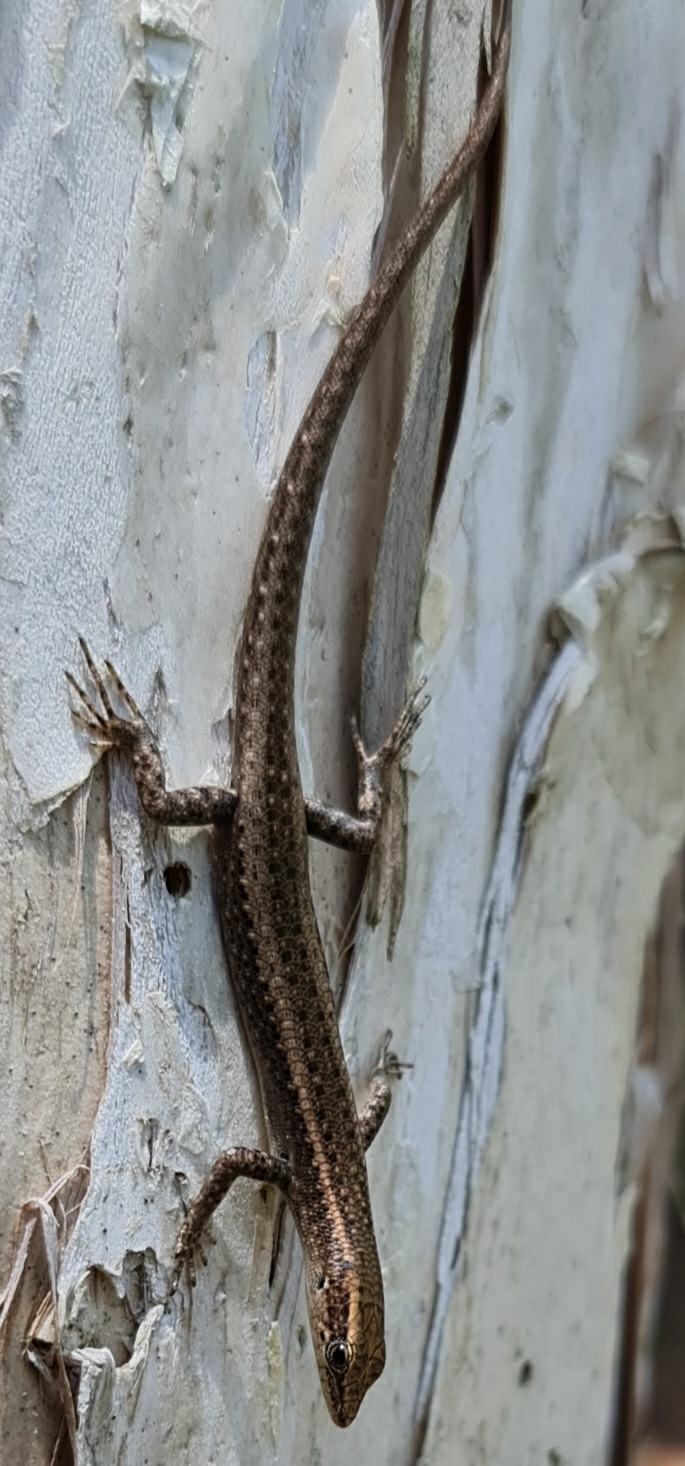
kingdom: Animalia
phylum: Chordata
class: Squamata
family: Scincidae
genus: Cryptoblepharus
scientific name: Cryptoblepharus cygnatus
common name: Swanson’s snake-eyed skink
